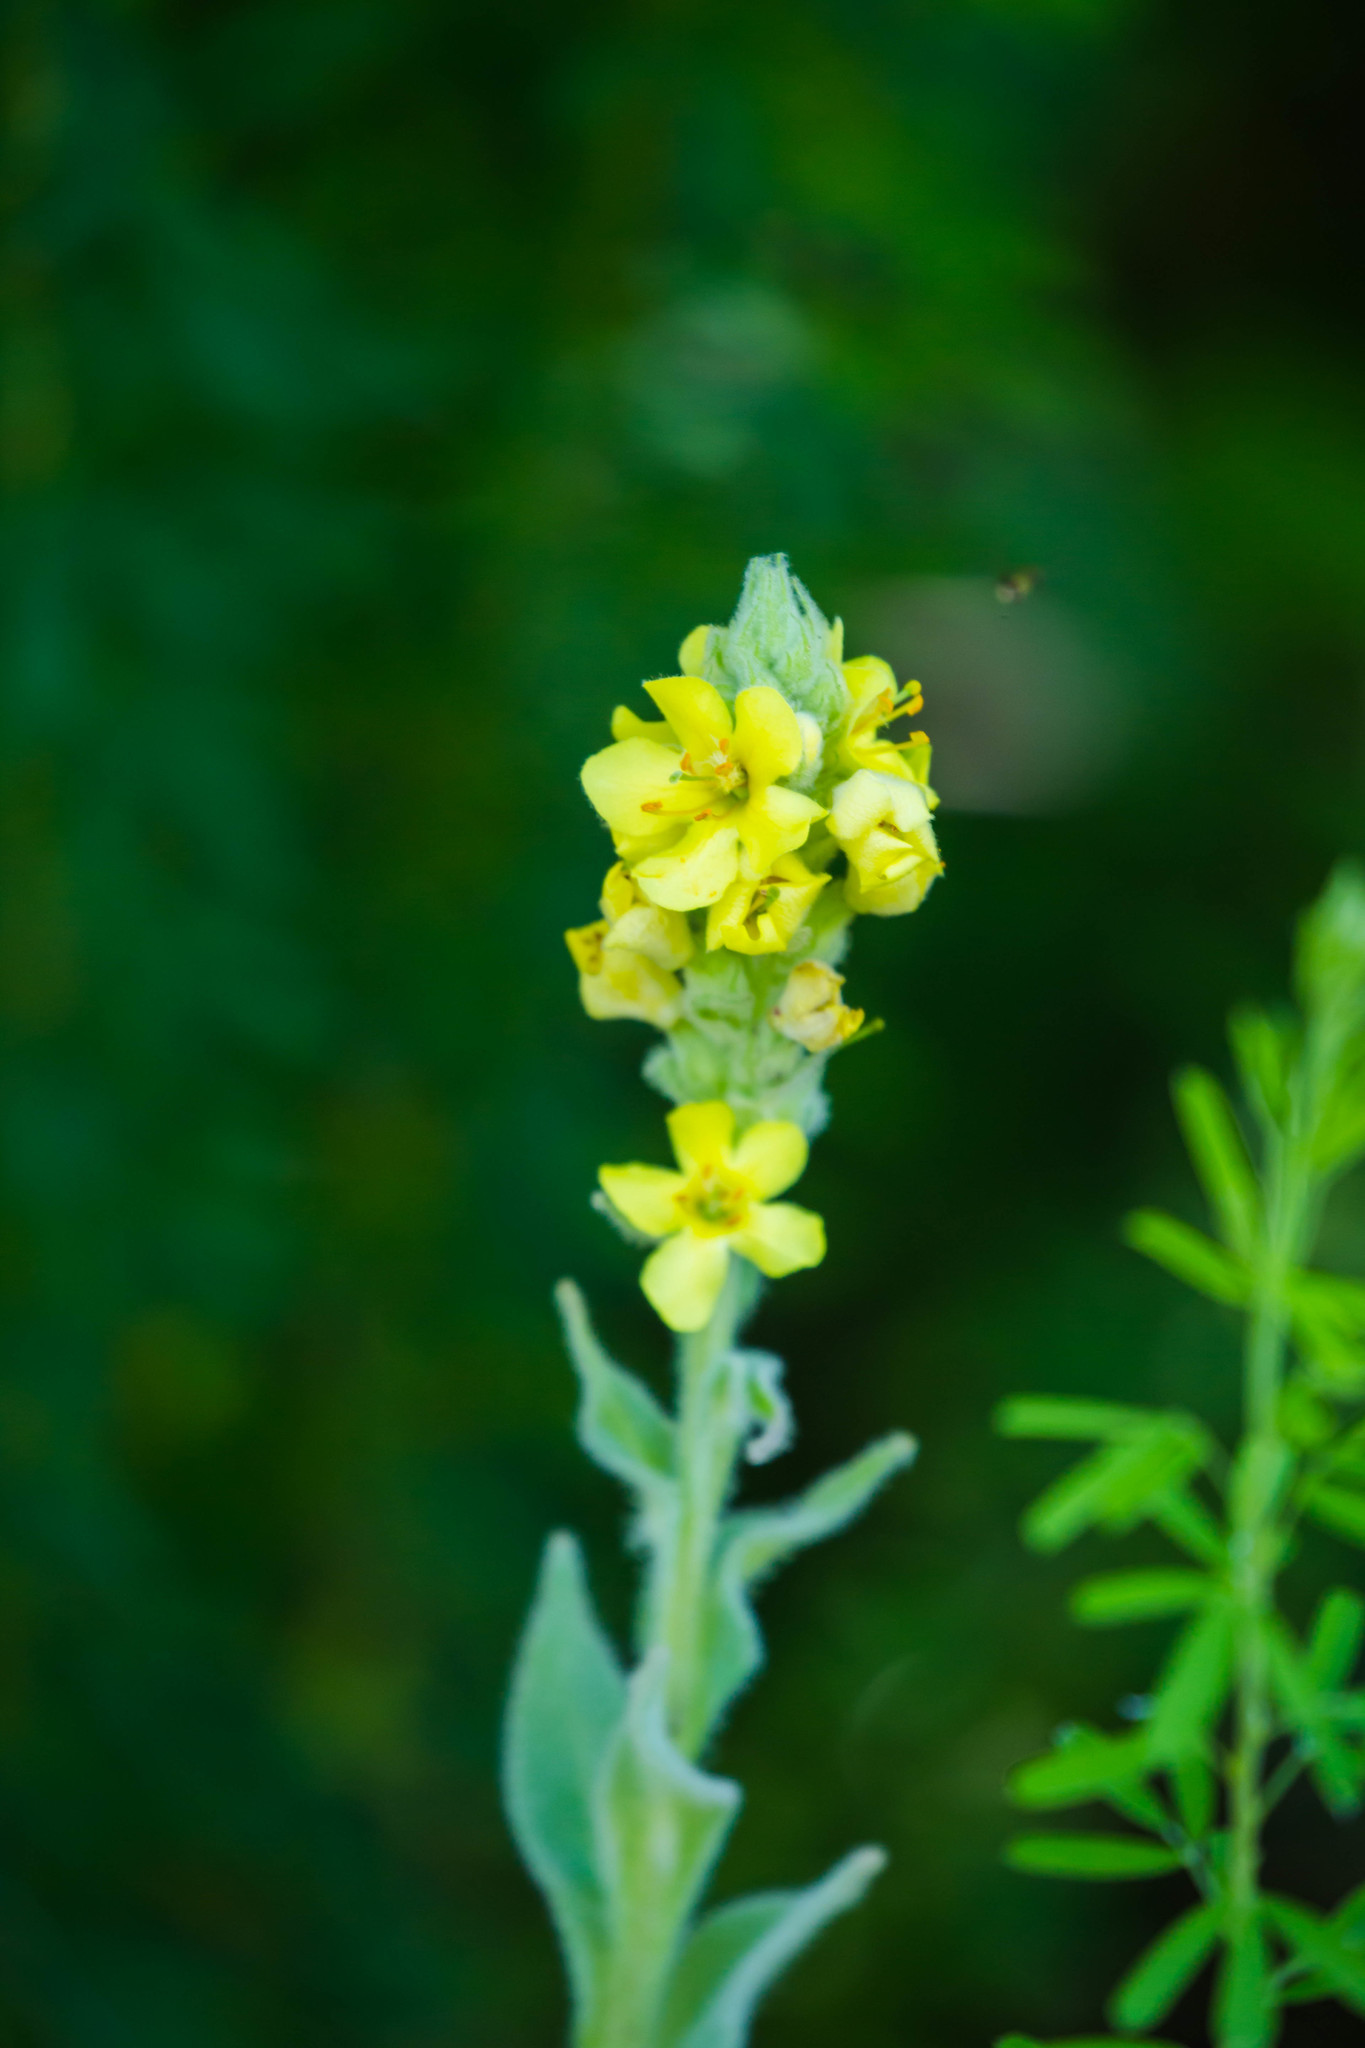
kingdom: Plantae
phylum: Tracheophyta
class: Magnoliopsida
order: Lamiales
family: Scrophulariaceae
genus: Verbascum
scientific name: Verbascum thapsus
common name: Common mullein
